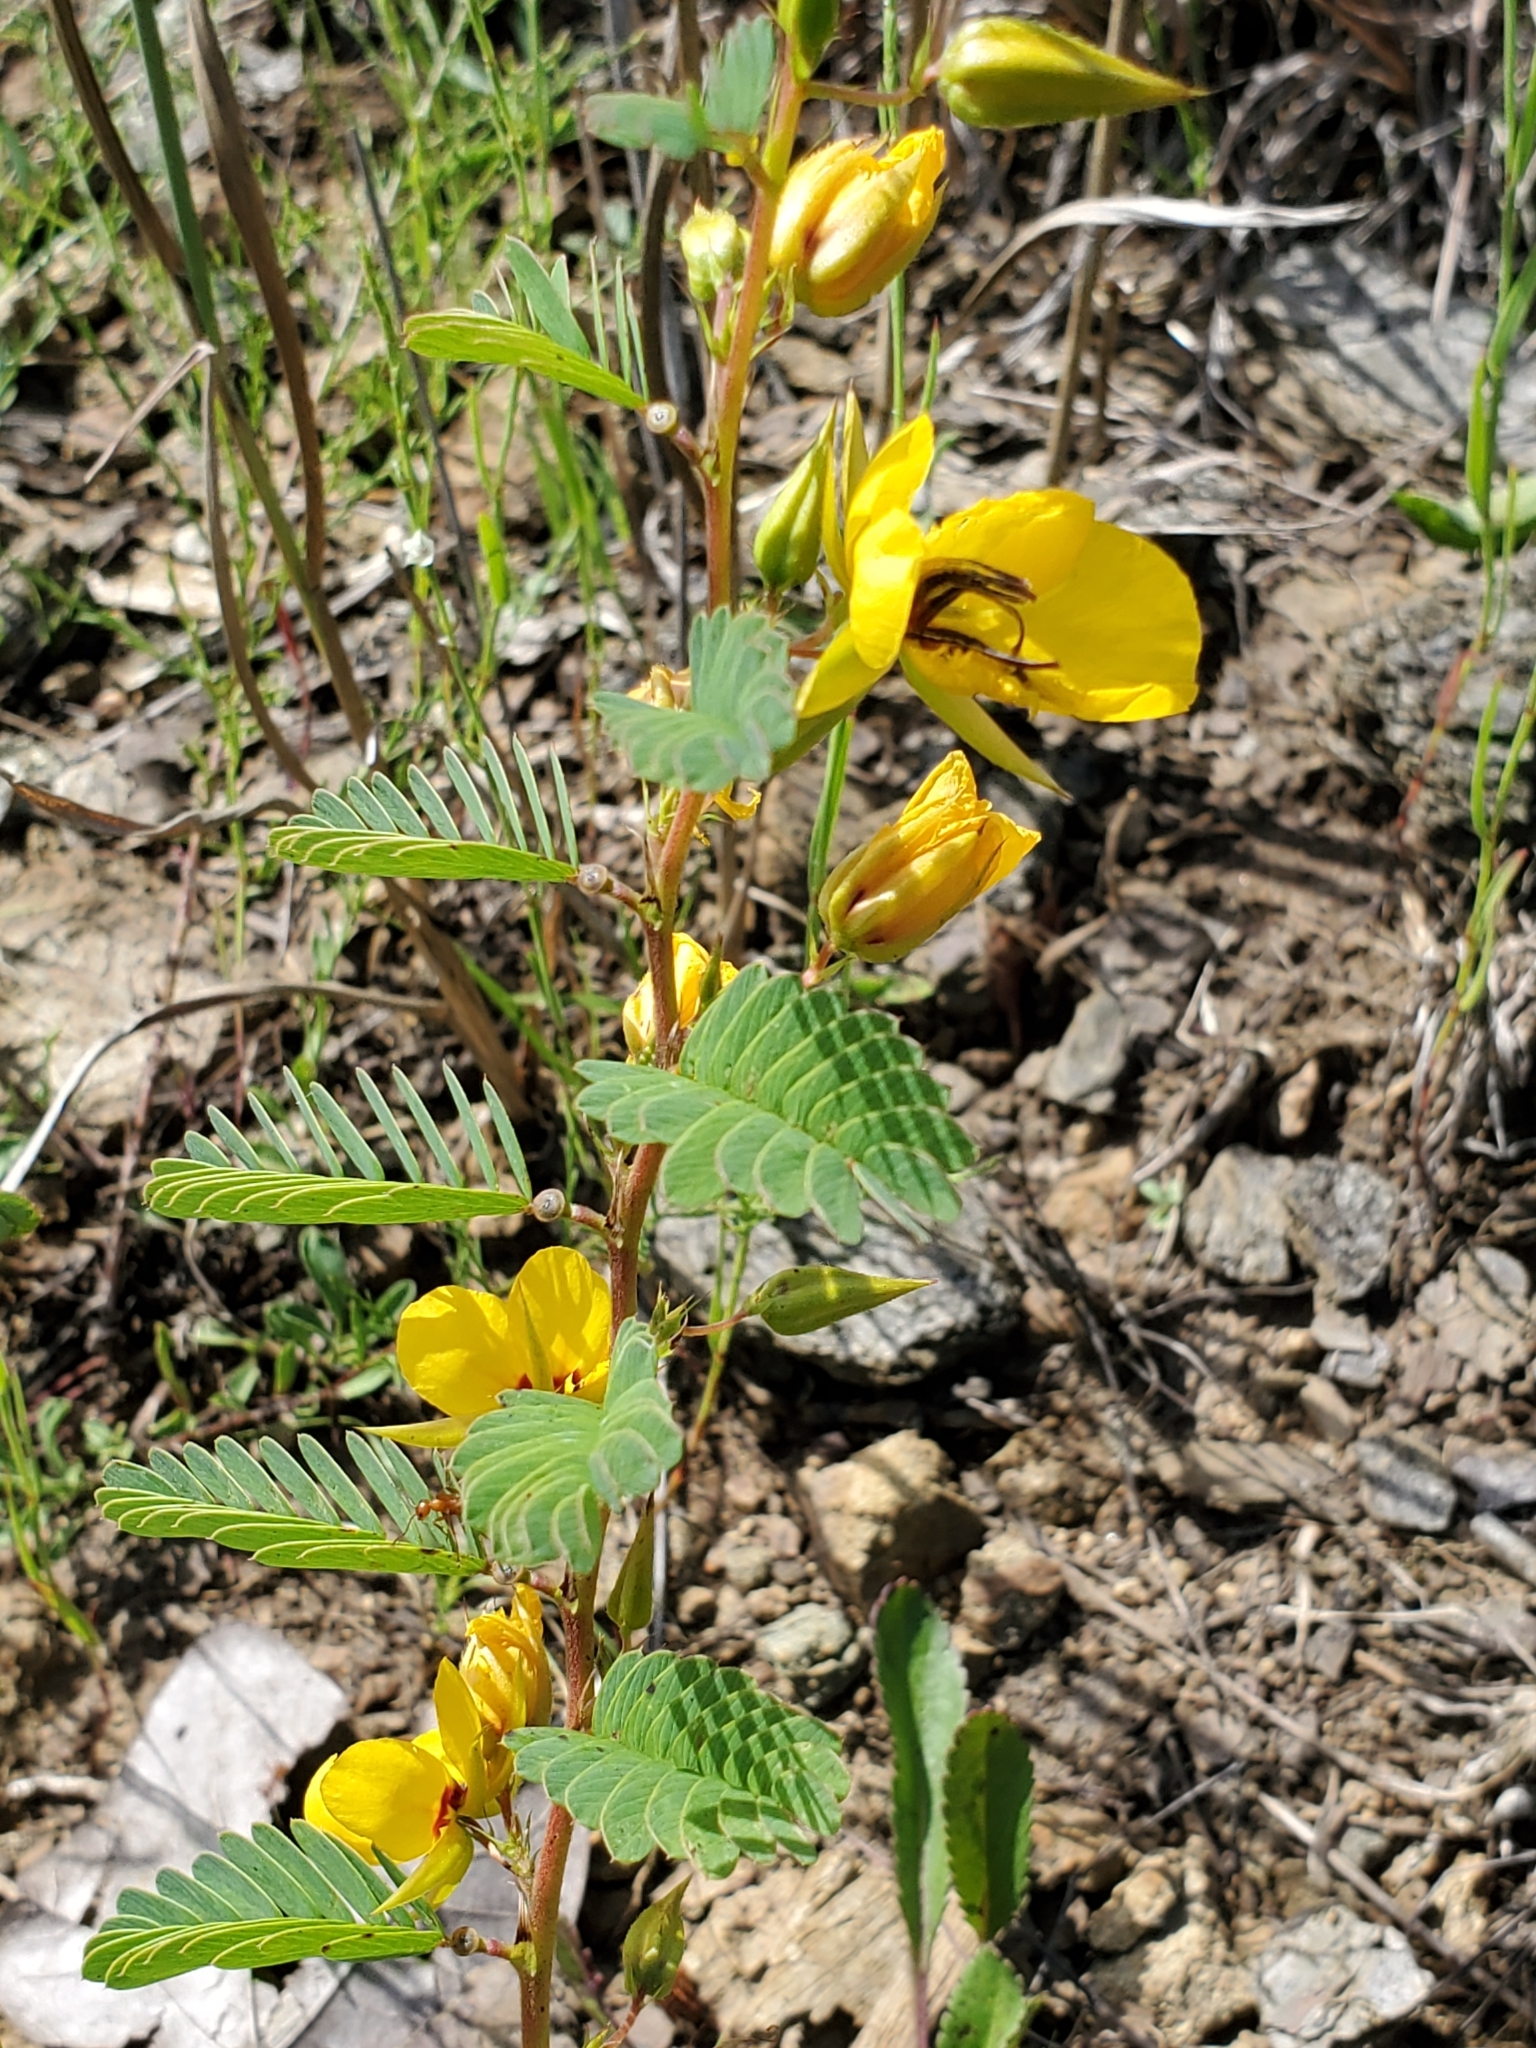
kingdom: Plantae
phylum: Tracheophyta
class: Magnoliopsida
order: Fabales
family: Fabaceae
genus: Chamaecrista
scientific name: Chamaecrista fasciculata
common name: Golden cassia
